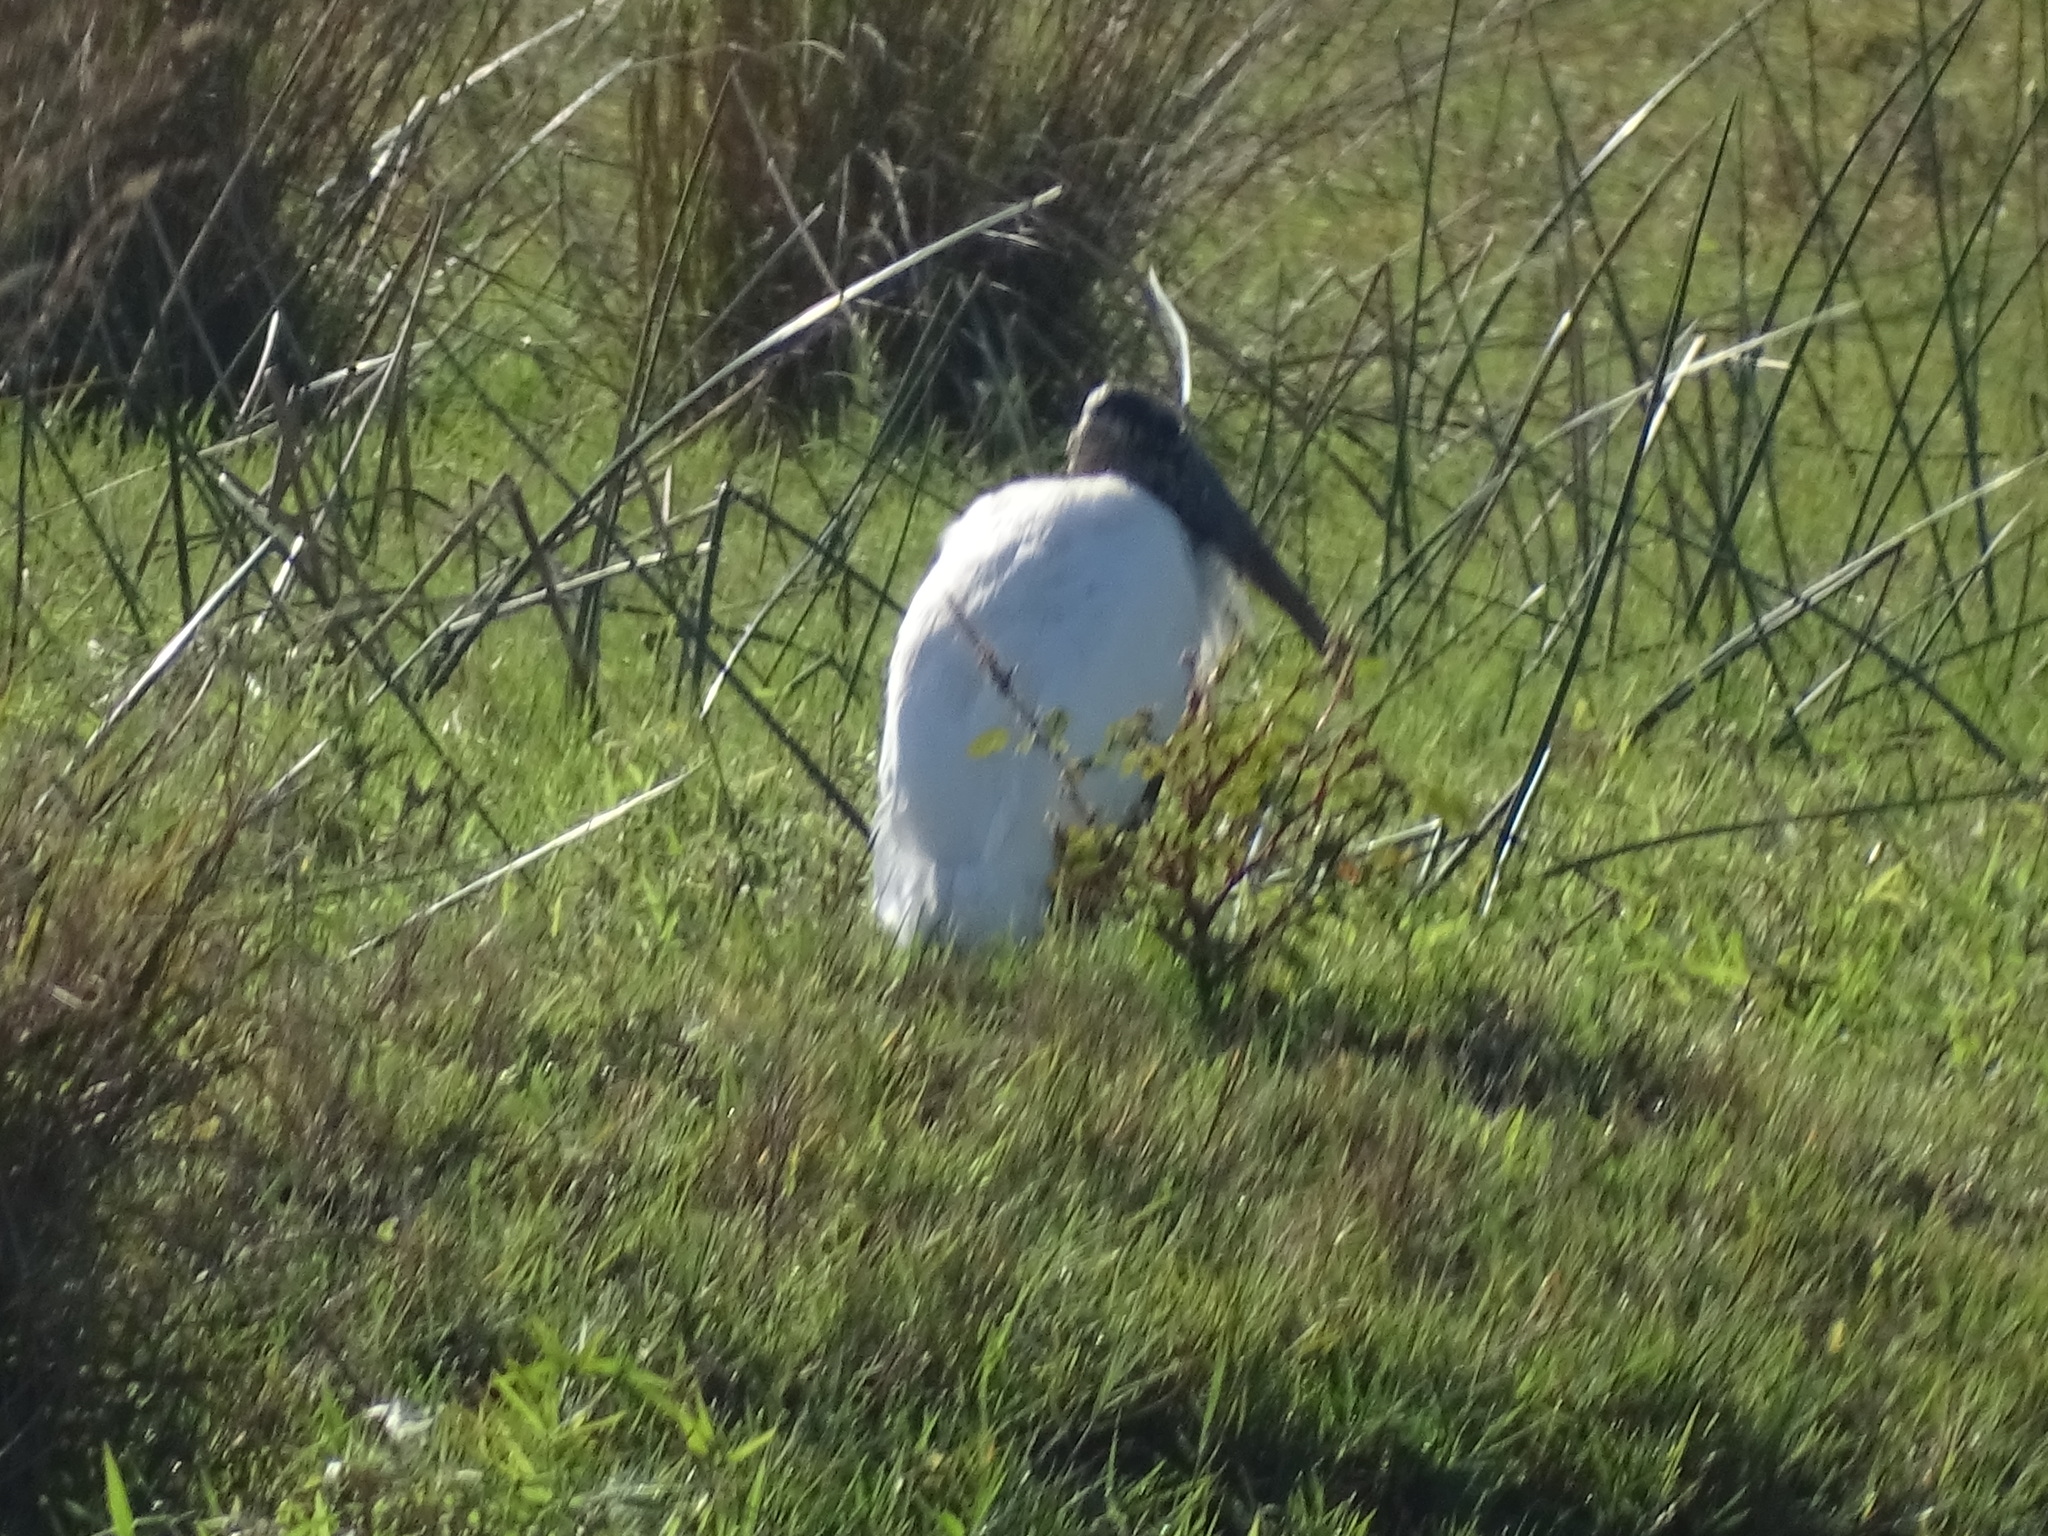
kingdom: Animalia
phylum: Chordata
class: Aves
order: Ciconiiformes
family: Ciconiidae
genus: Mycteria
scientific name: Mycteria americana
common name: Wood stork
